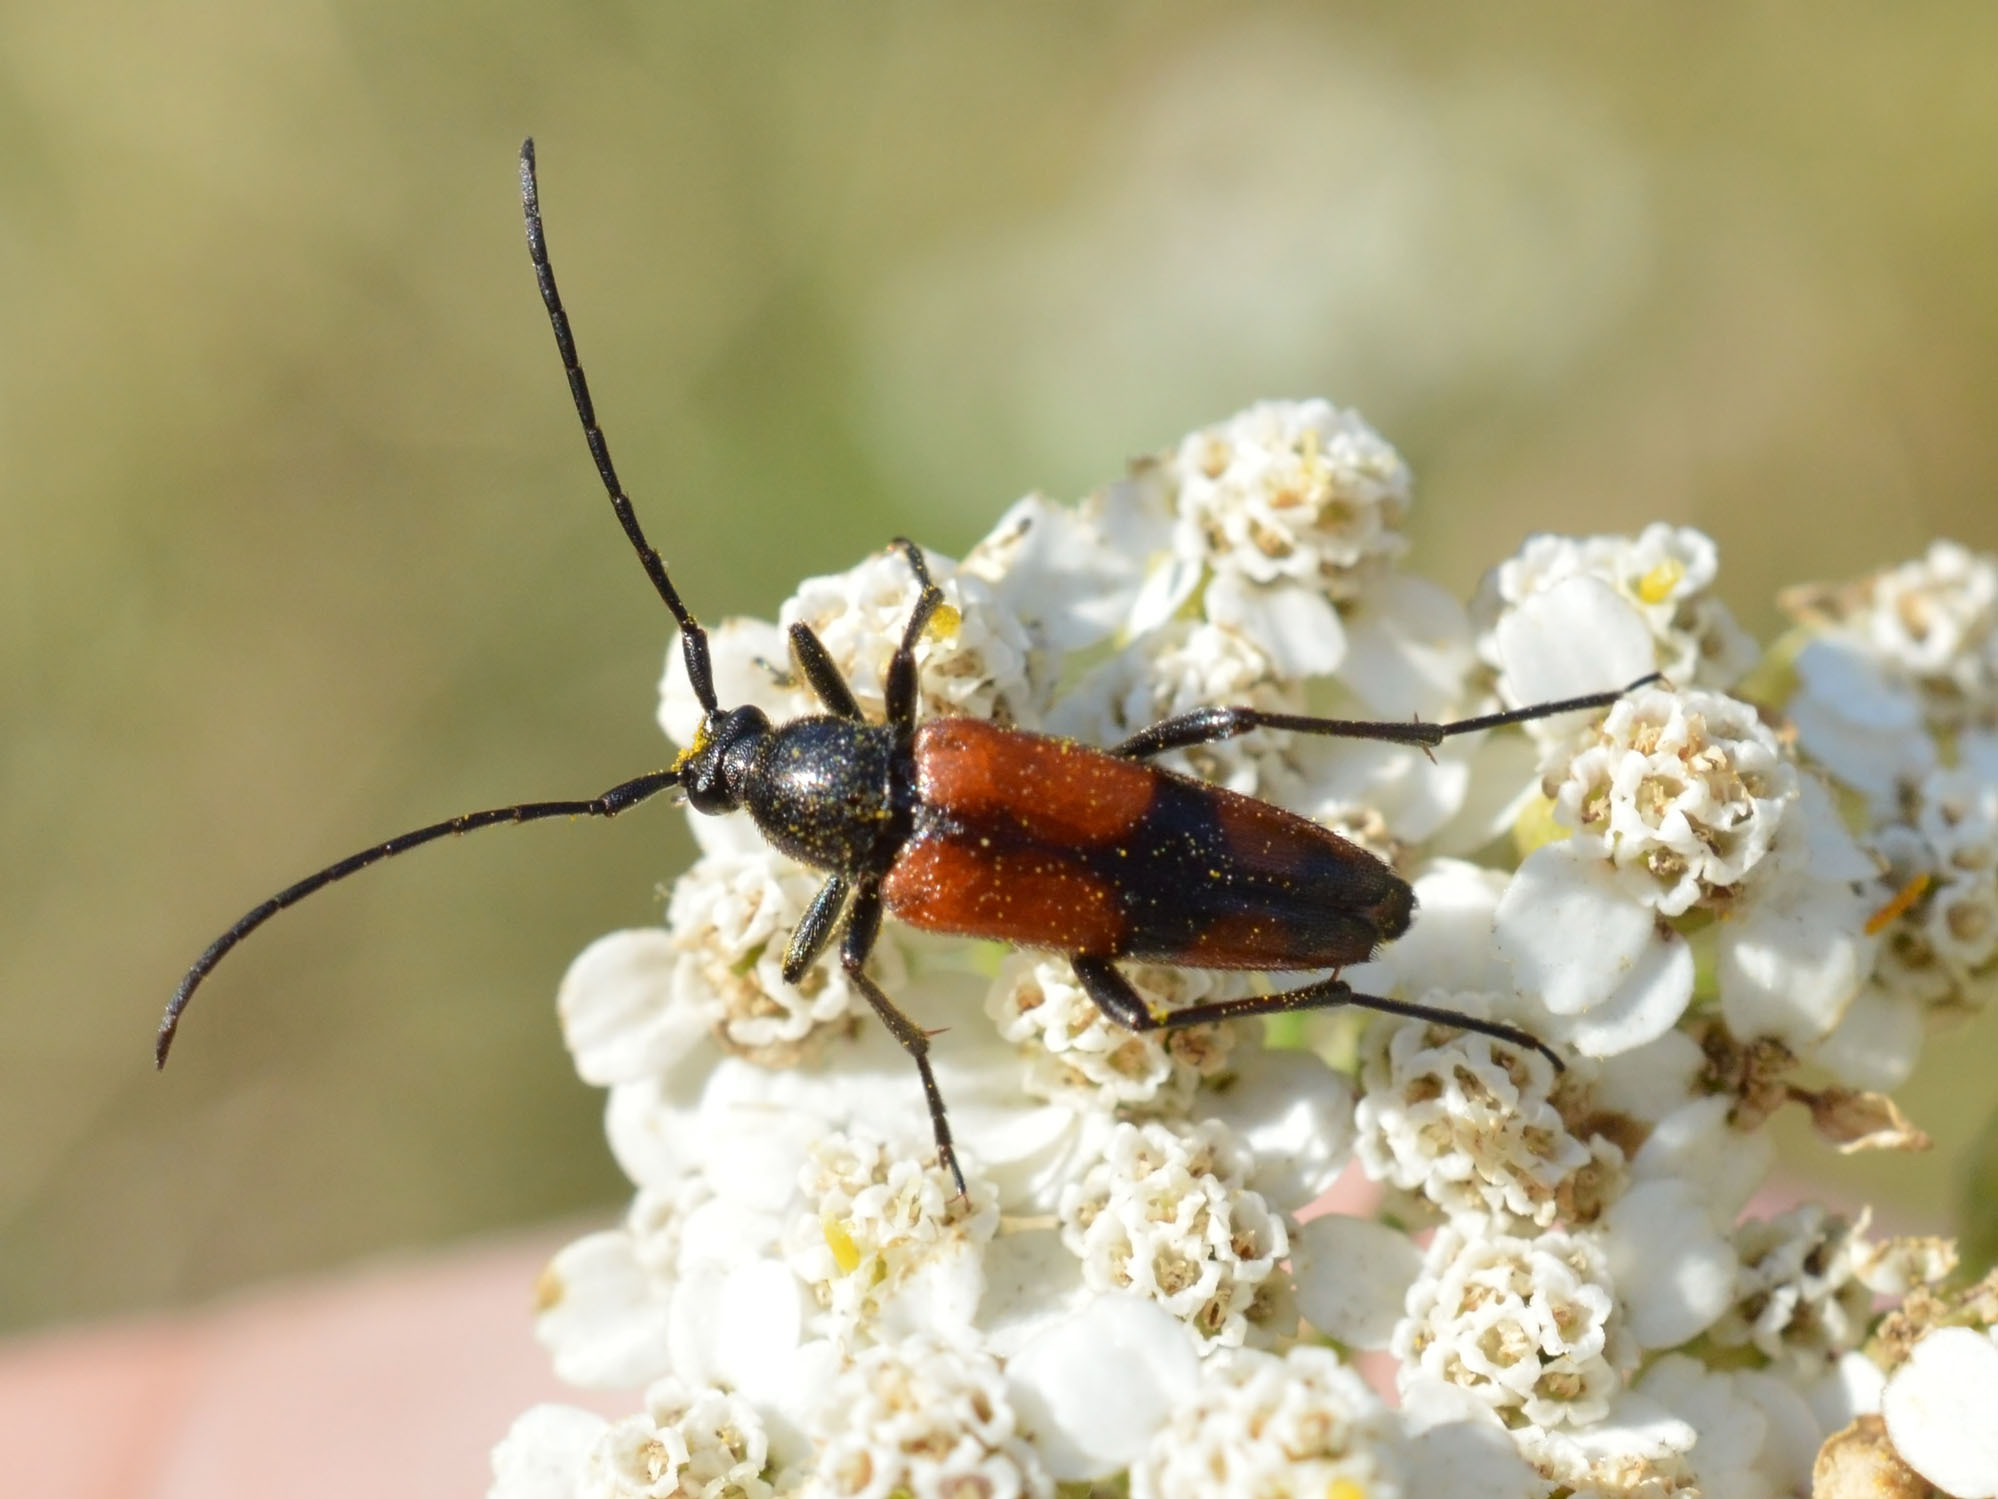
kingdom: Animalia
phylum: Arthropoda
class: Insecta
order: Coleoptera
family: Cerambycidae
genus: Stenurella
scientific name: Stenurella bifasciata
